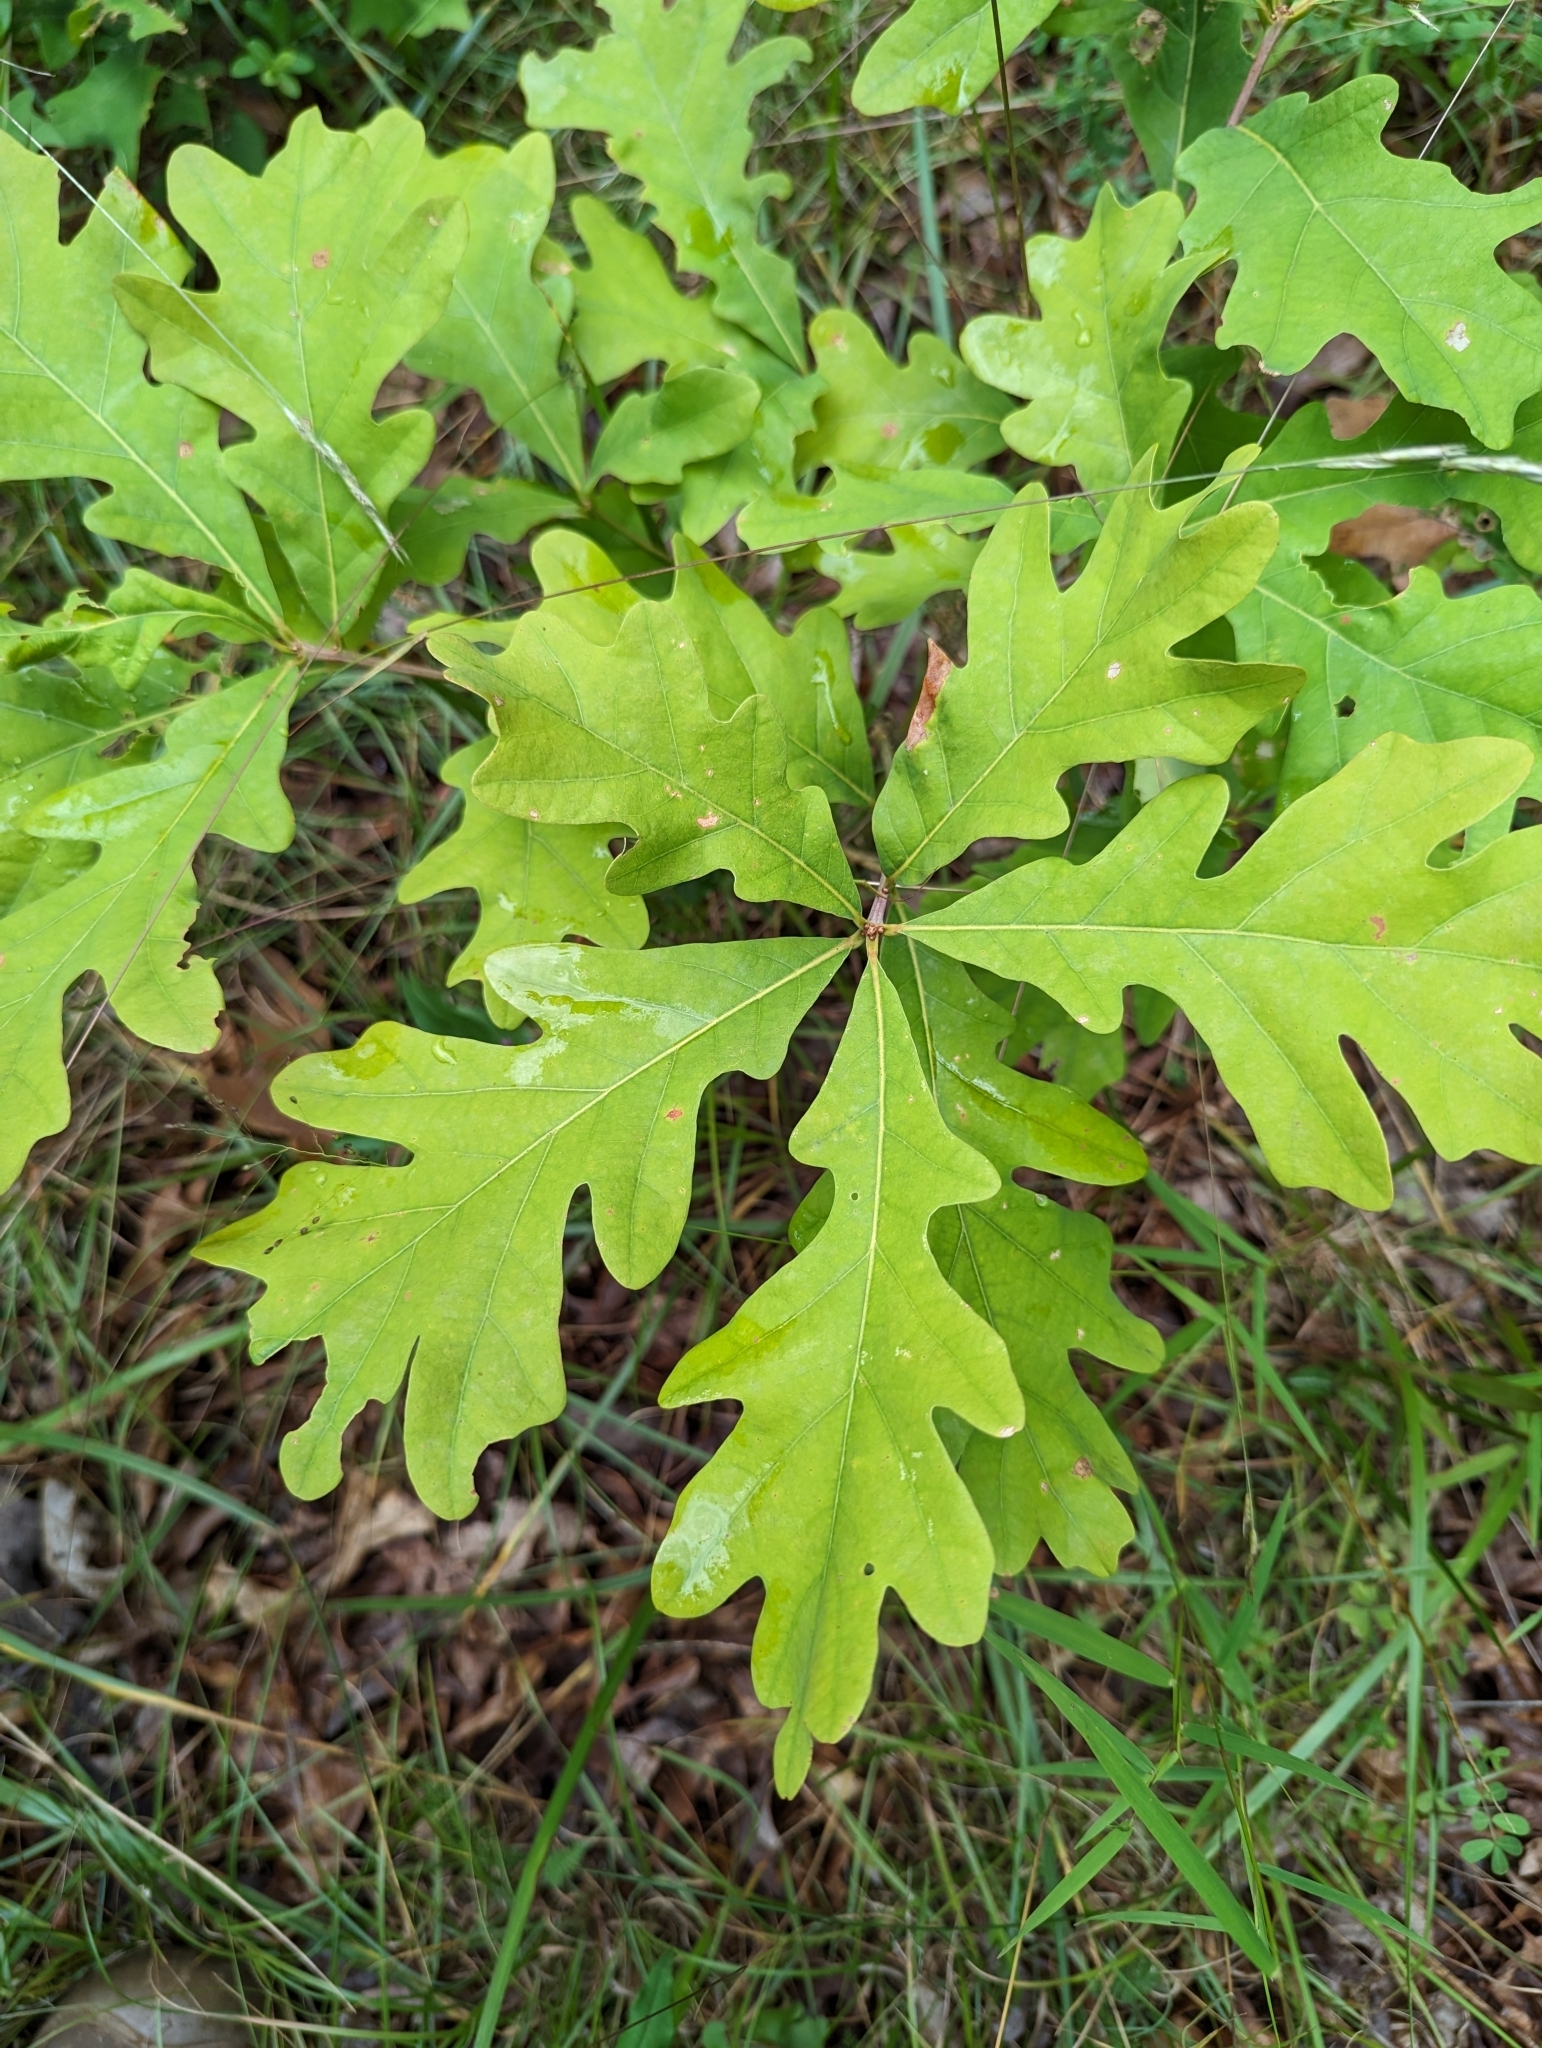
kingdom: Plantae
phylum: Tracheophyta
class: Magnoliopsida
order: Fagales
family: Fagaceae
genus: Quercus
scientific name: Quercus alba
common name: White oak
